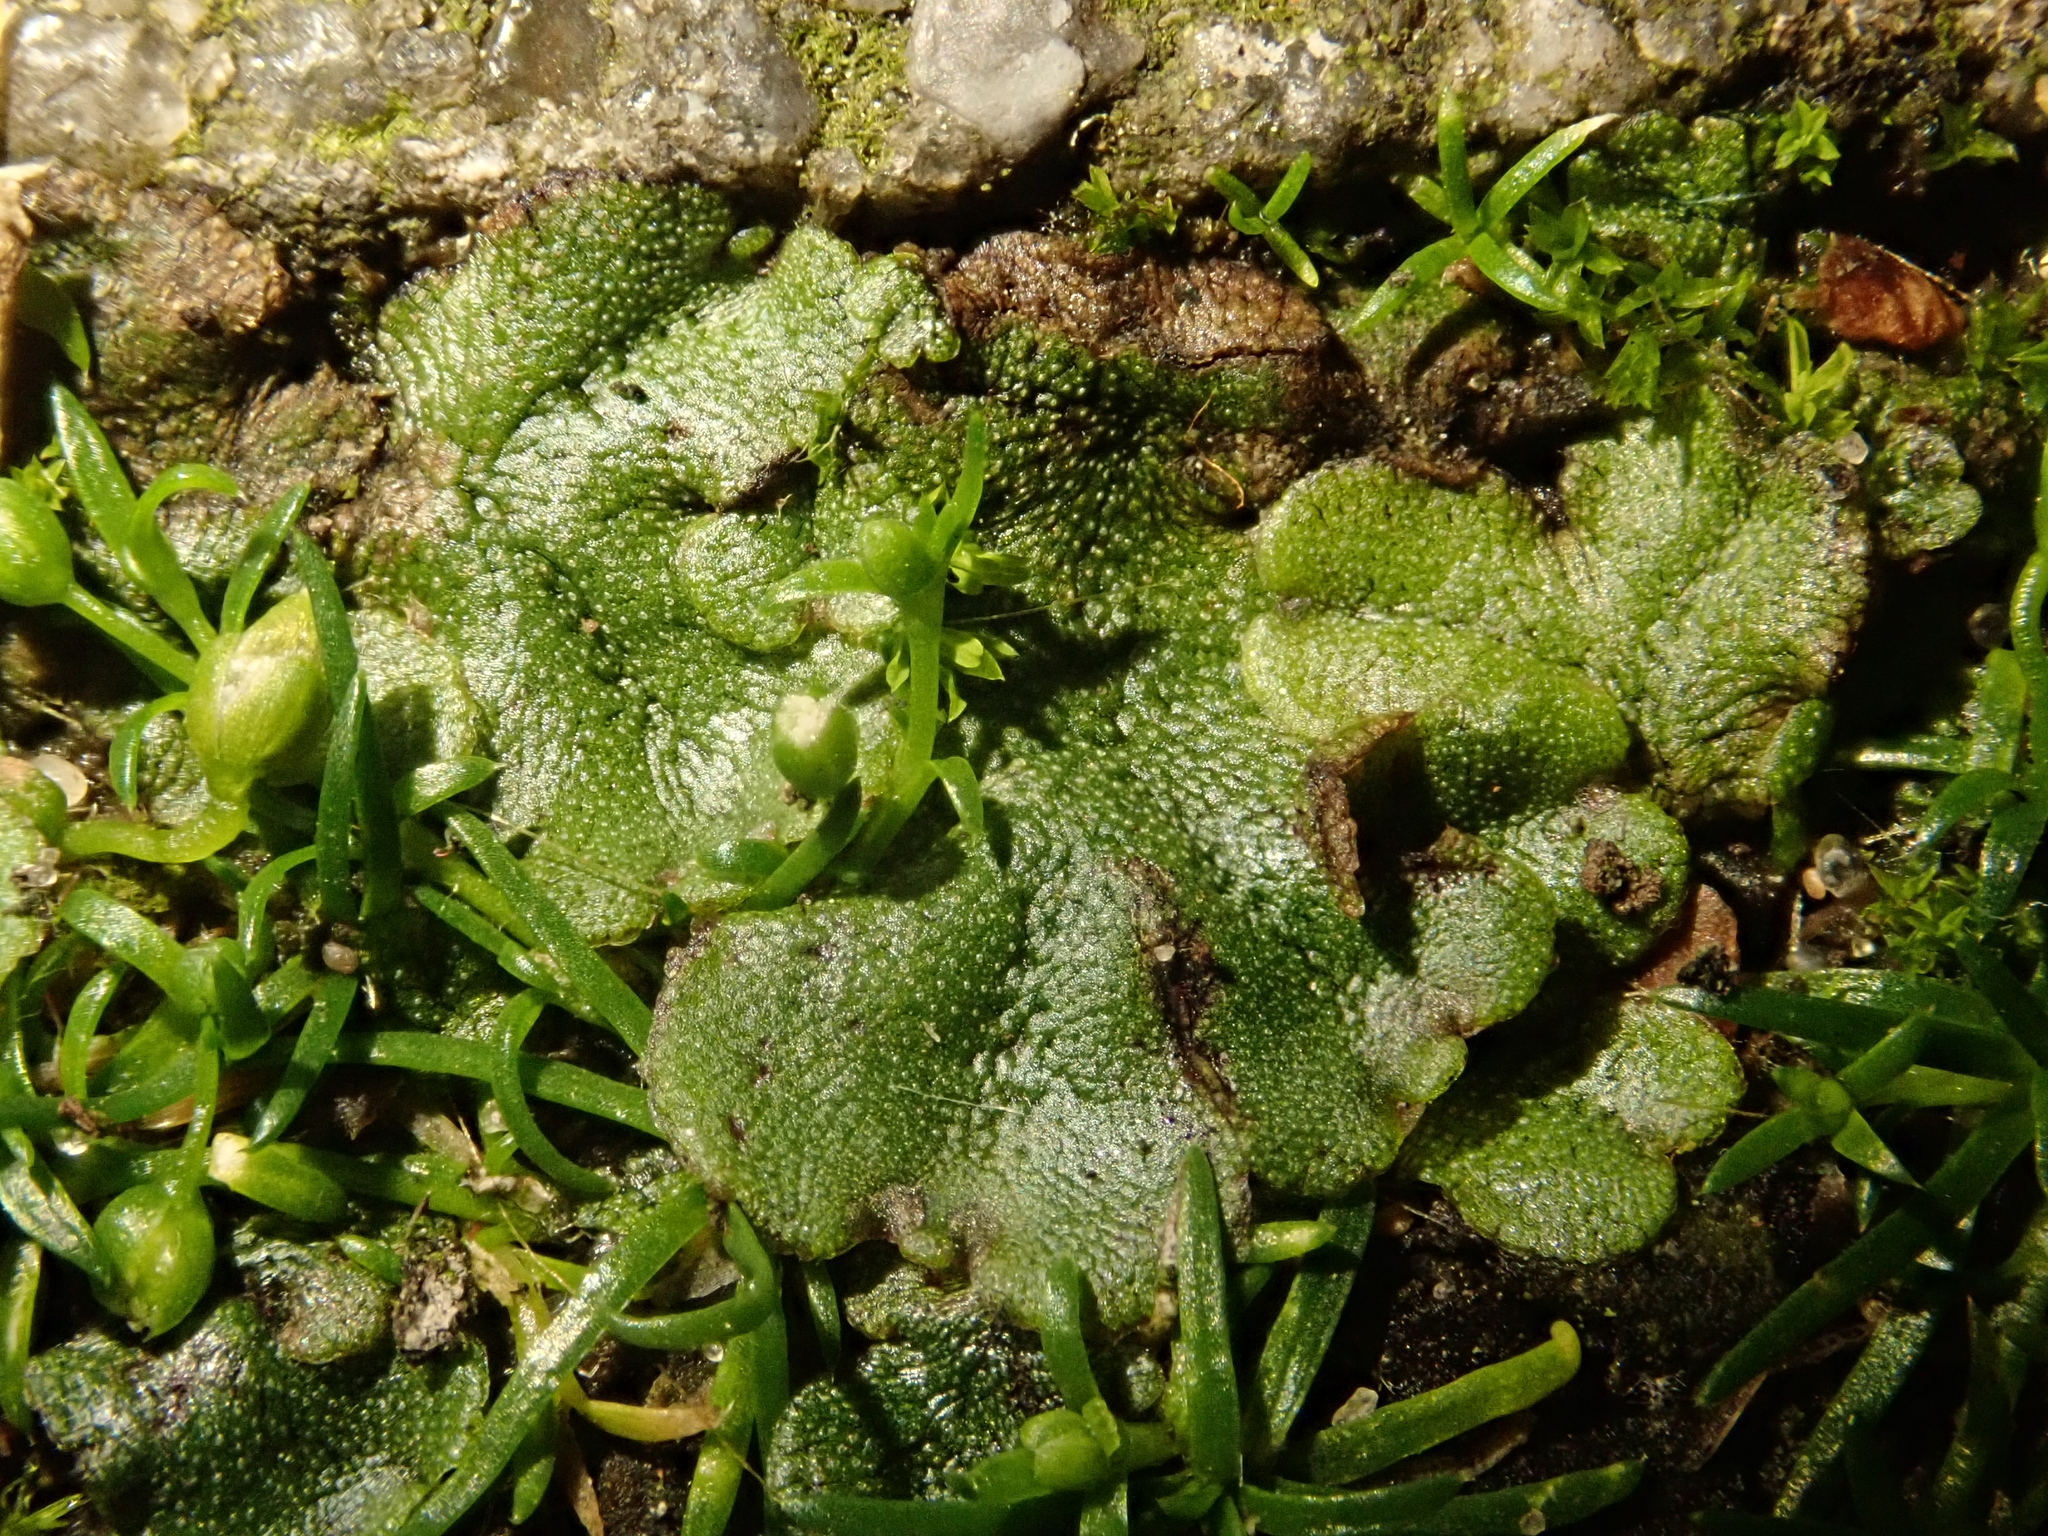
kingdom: Plantae
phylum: Marchantiophyta
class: Marchantiopsida
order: Marchantiales
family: Marchantiaceae
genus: Marchantia
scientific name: Marchantia polymorpha
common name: Common liverwort
